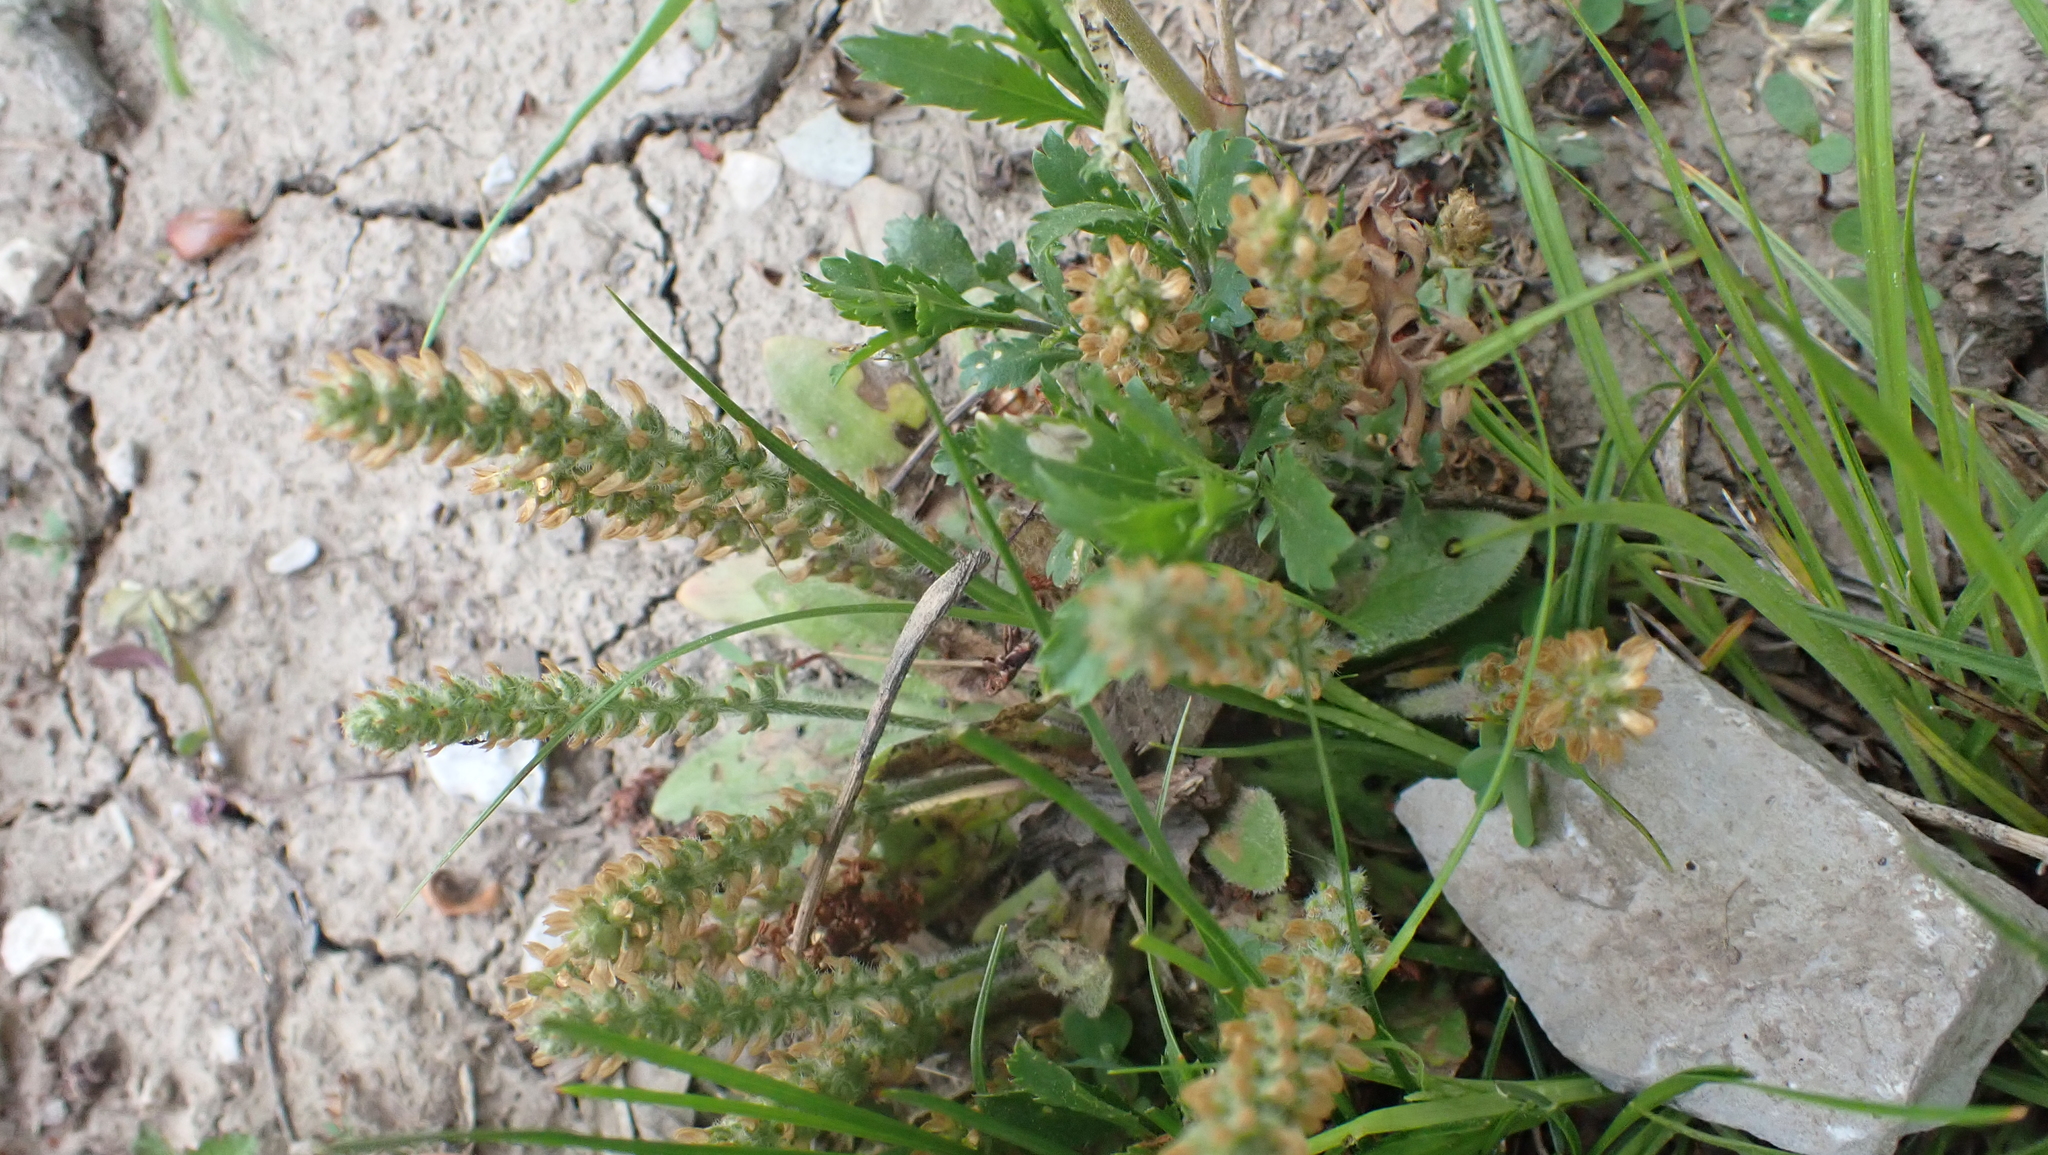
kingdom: Plantae
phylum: Tracheophyta
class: Magnoliopsida
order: Lamiales
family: Plantaginaceae
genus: Plantago
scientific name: Plantago virginica
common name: Hoary plantain
